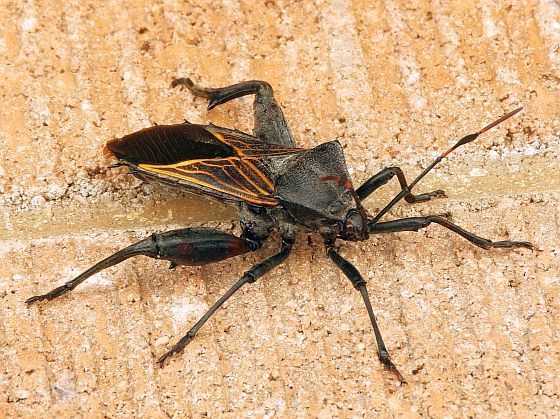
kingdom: Animalia
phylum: Arthropoda
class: Insecta
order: Hemiptera
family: Coreidae
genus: Thasus
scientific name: Thasus neocalifornicus
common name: Giant mesquite bug
